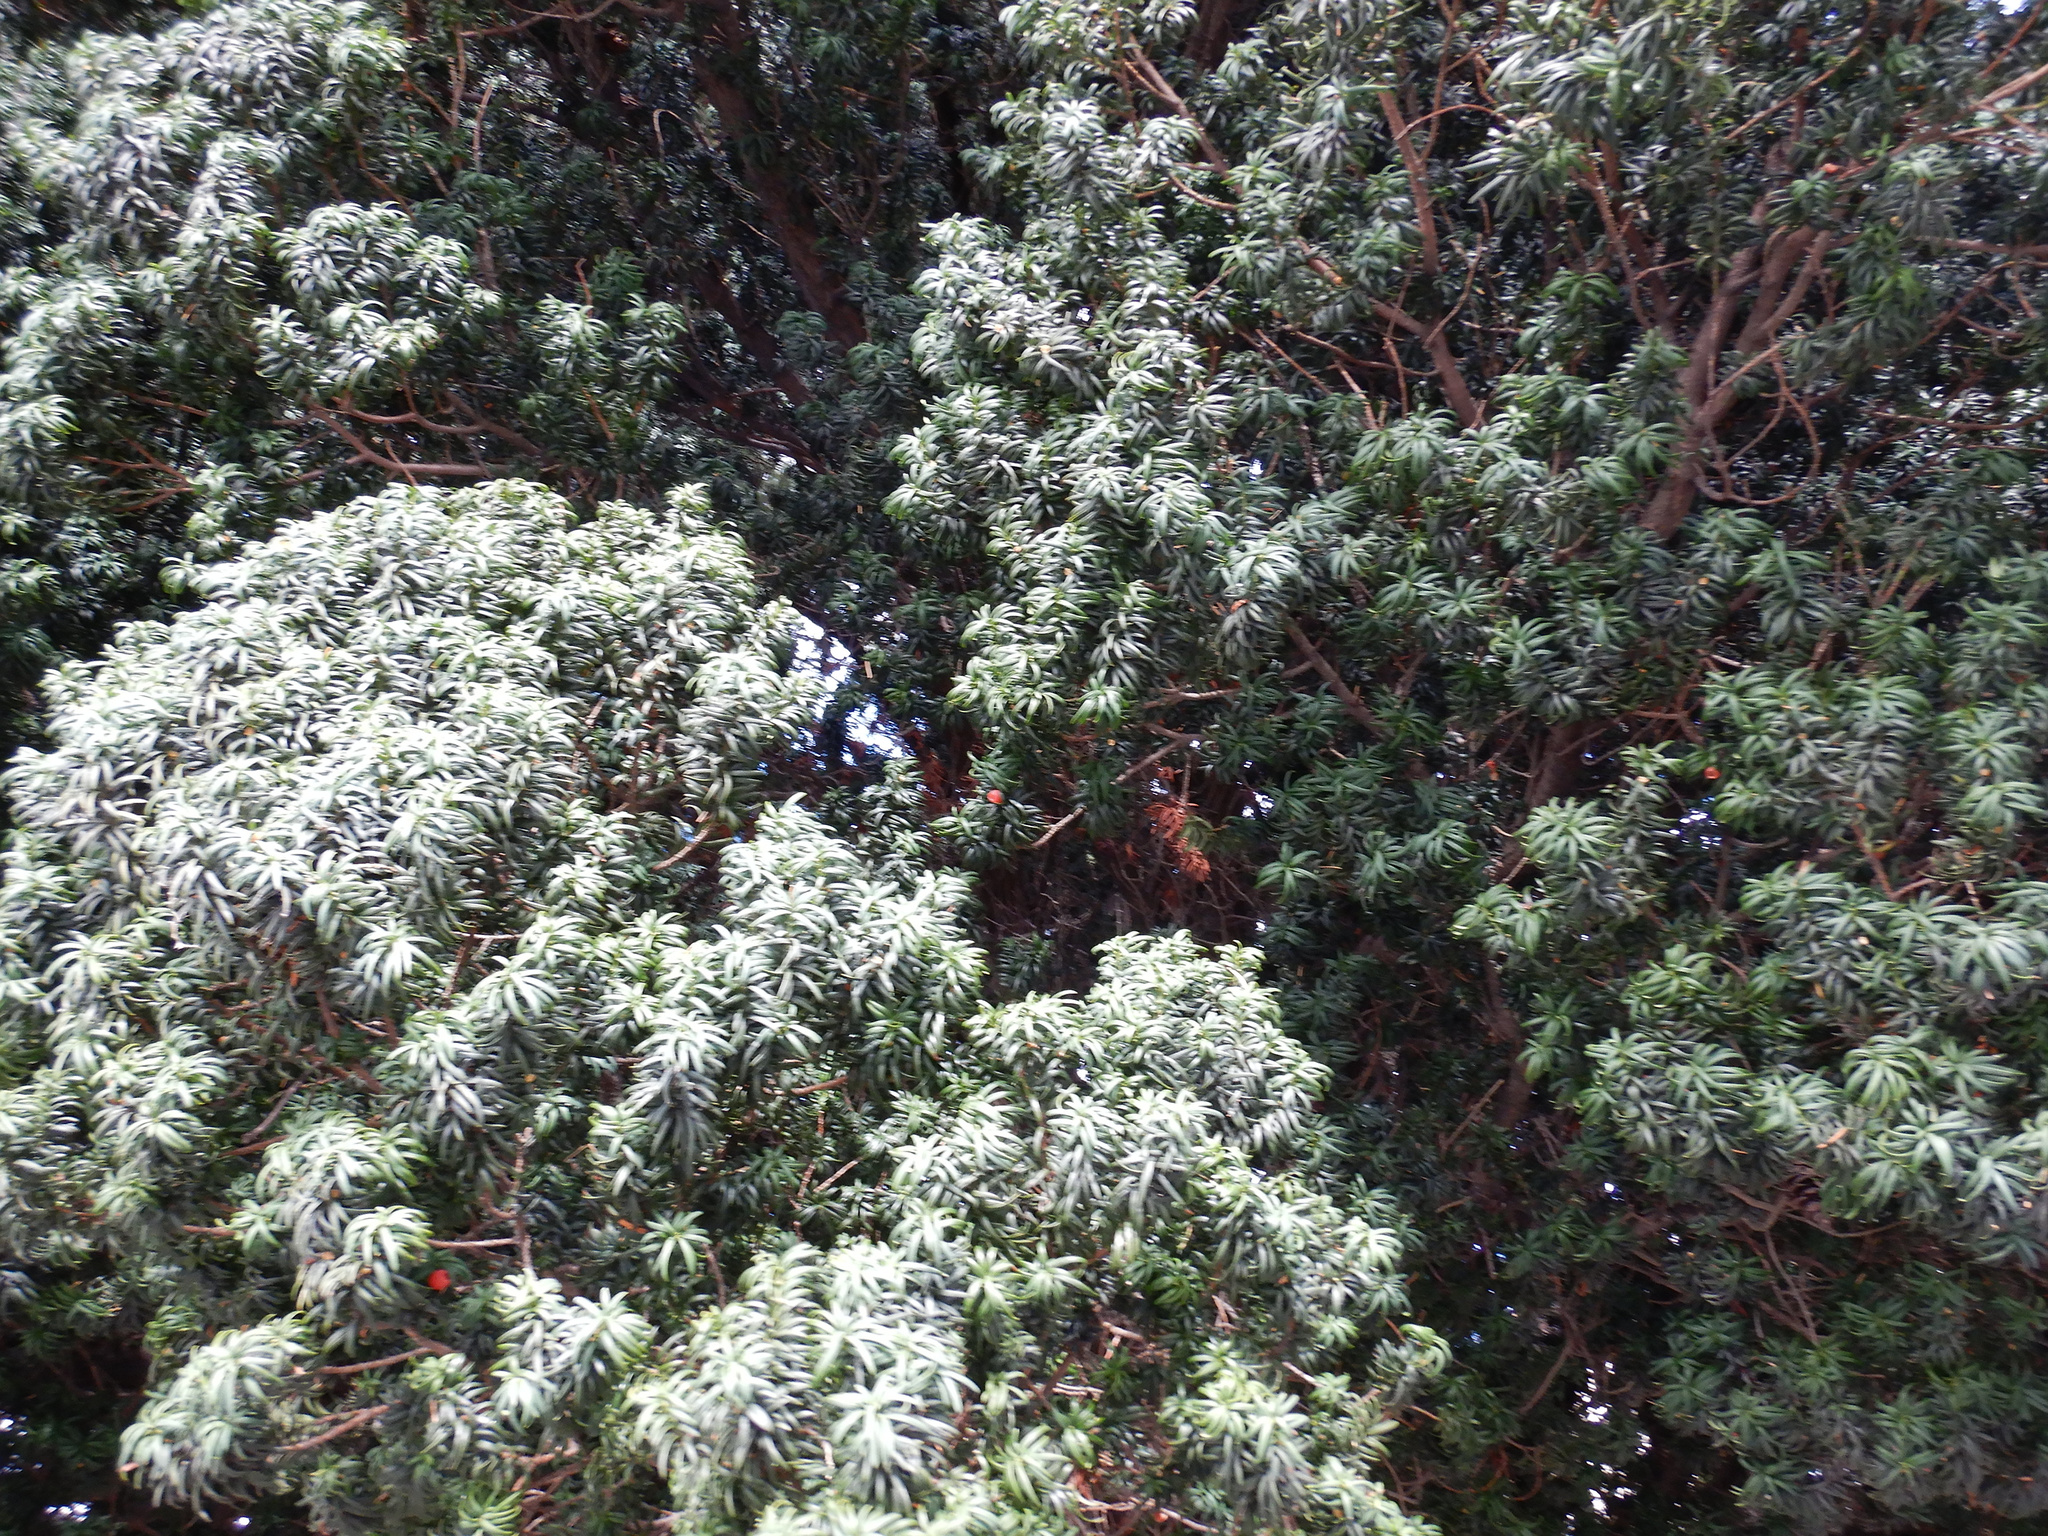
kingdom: Plantae
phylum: Tracheophyta
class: Pinopsida
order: Pinales
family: Taxaceae
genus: Taxus
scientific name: Taxus baccata
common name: Yew
